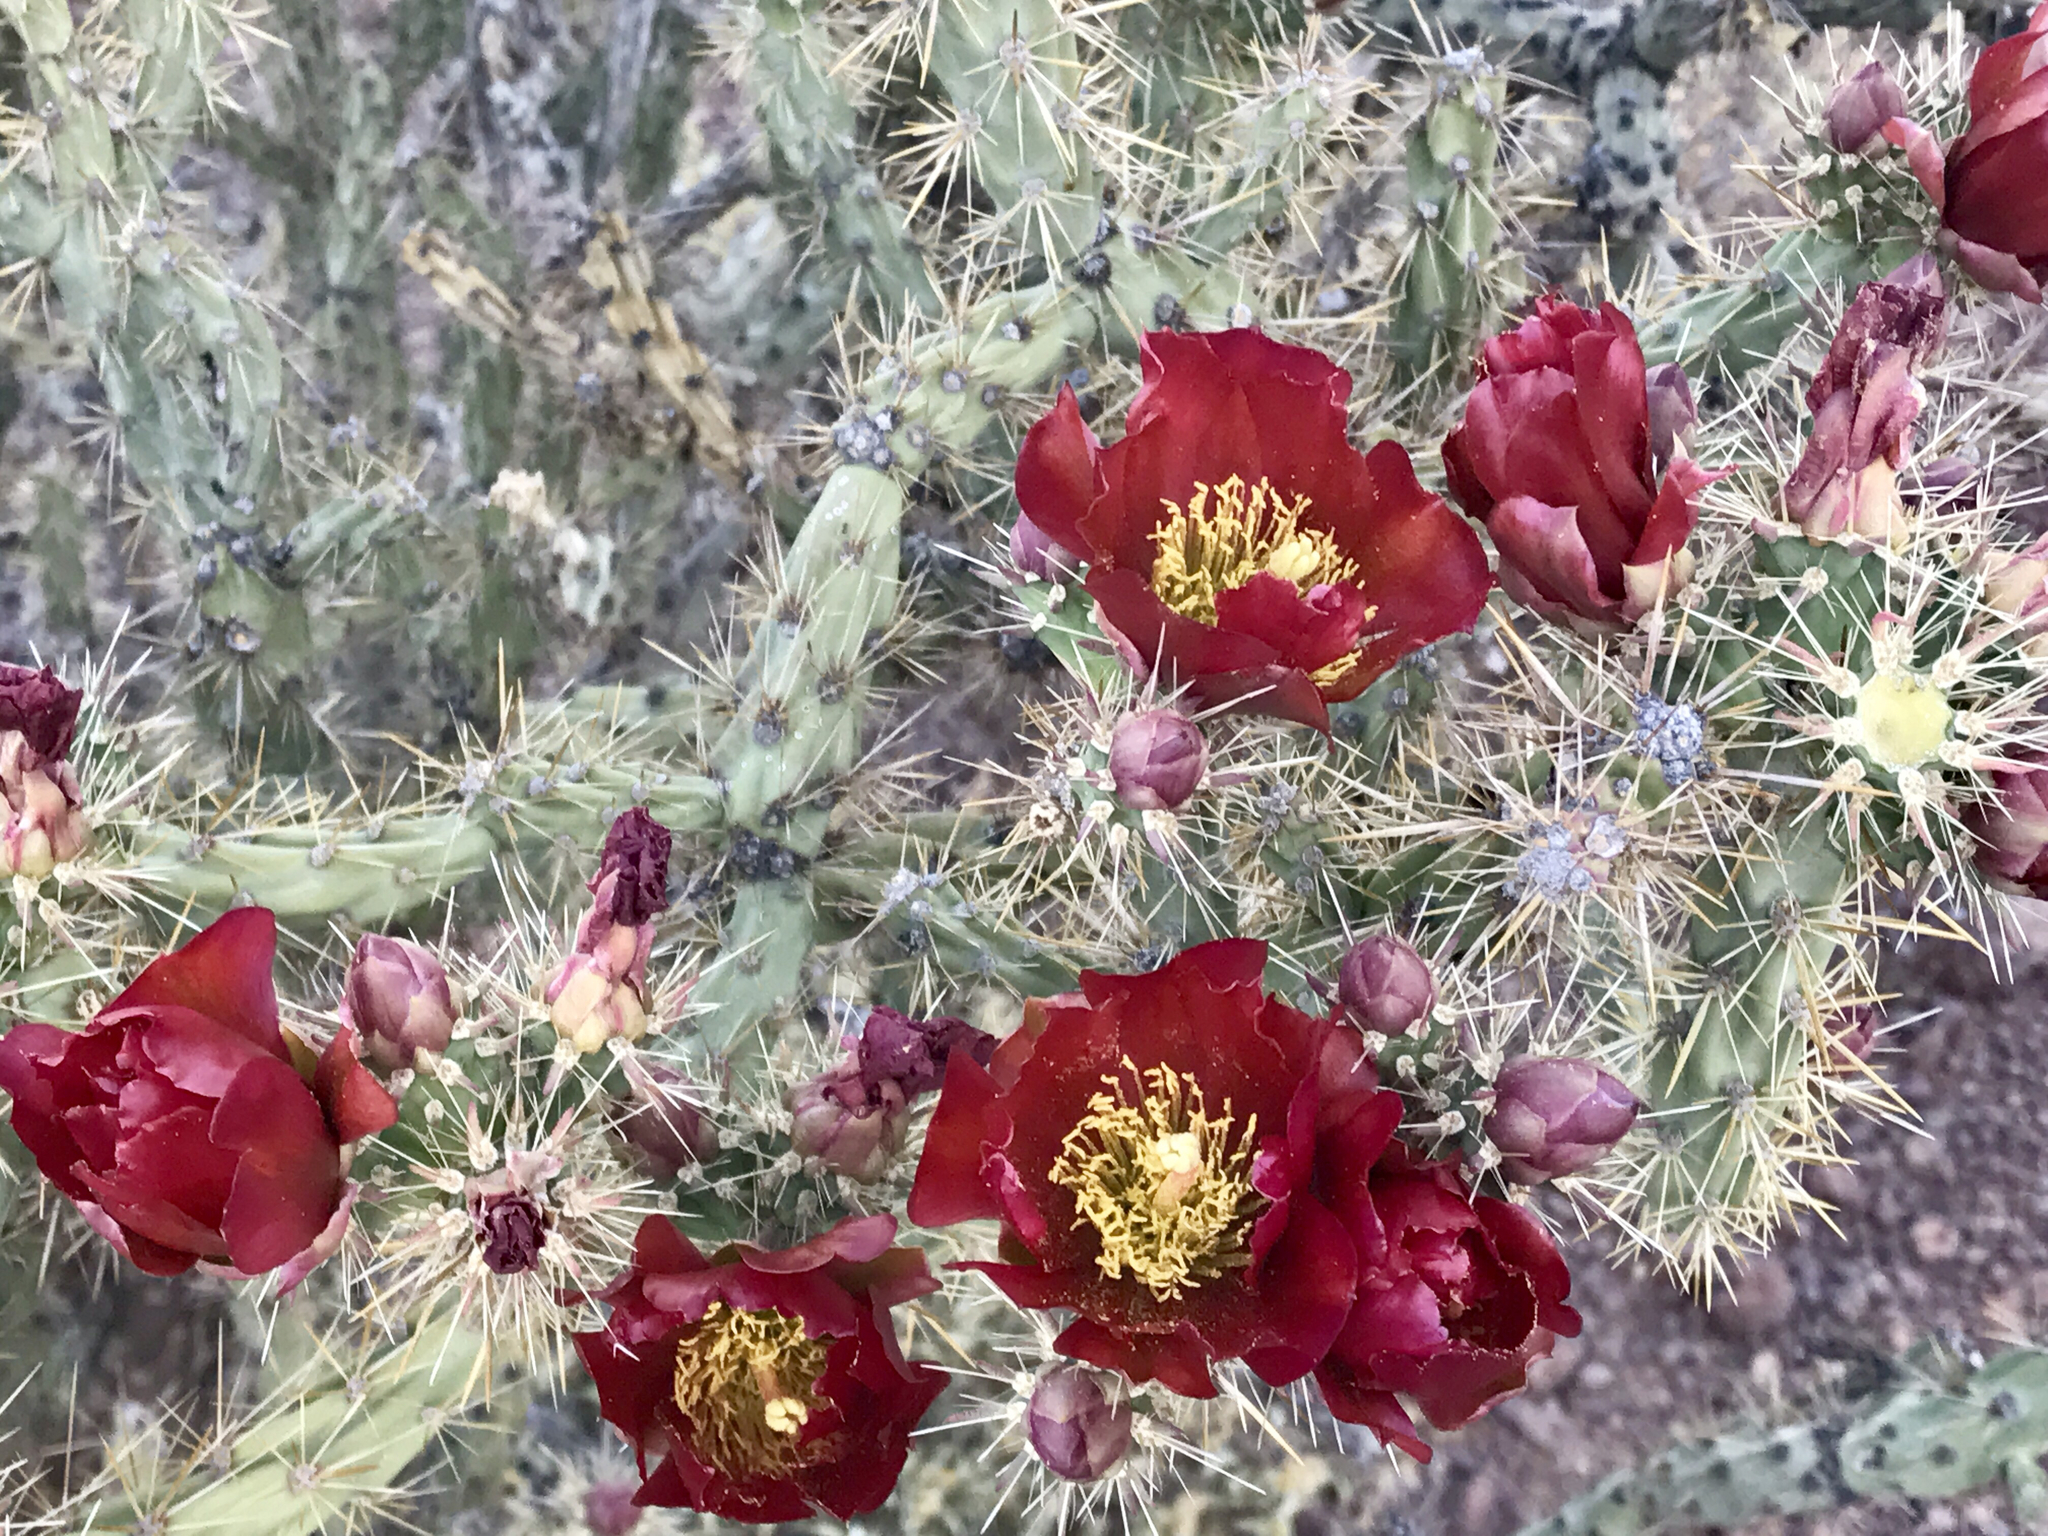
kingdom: Plantae
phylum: Tracheophyta
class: Magnoliopsida
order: Caryophyllales
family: Cactaceae
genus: Cylindropuntia
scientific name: Cylindropuntia thurberi
